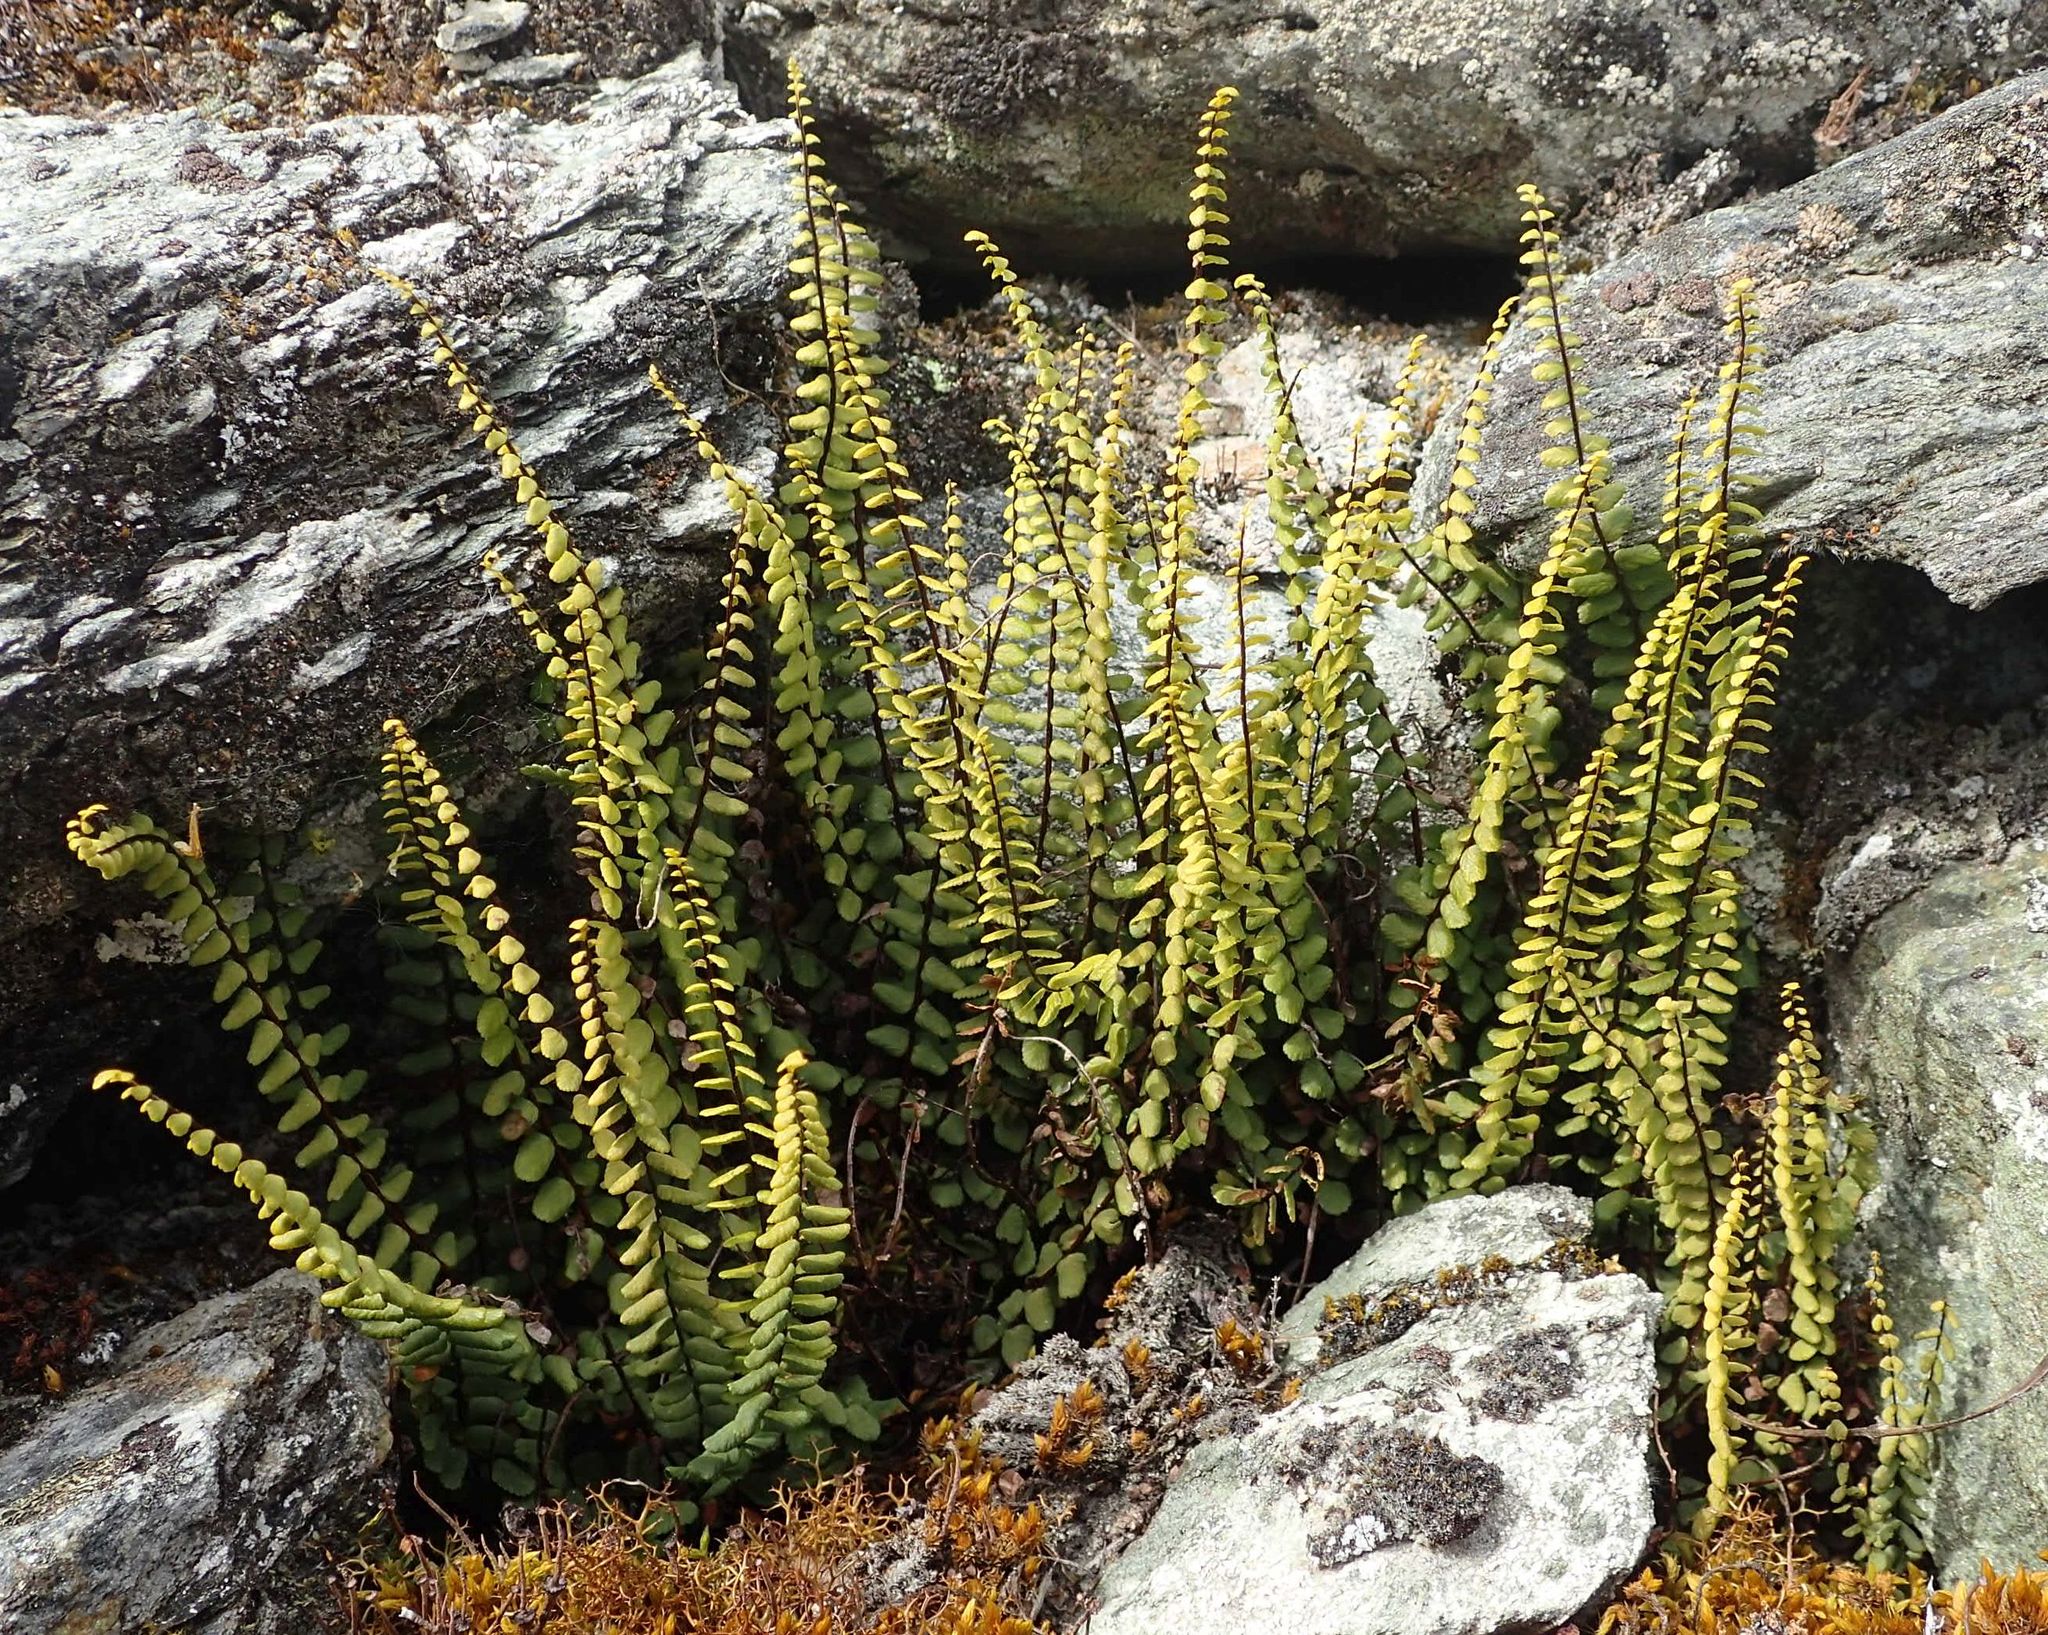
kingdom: Plantae
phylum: Tracheophyta
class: Polypodiopsida
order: Polypodiales
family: Aspleniaceae
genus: Asplenium
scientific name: Asplenium trichomanes
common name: Maidenhair spleenwort
